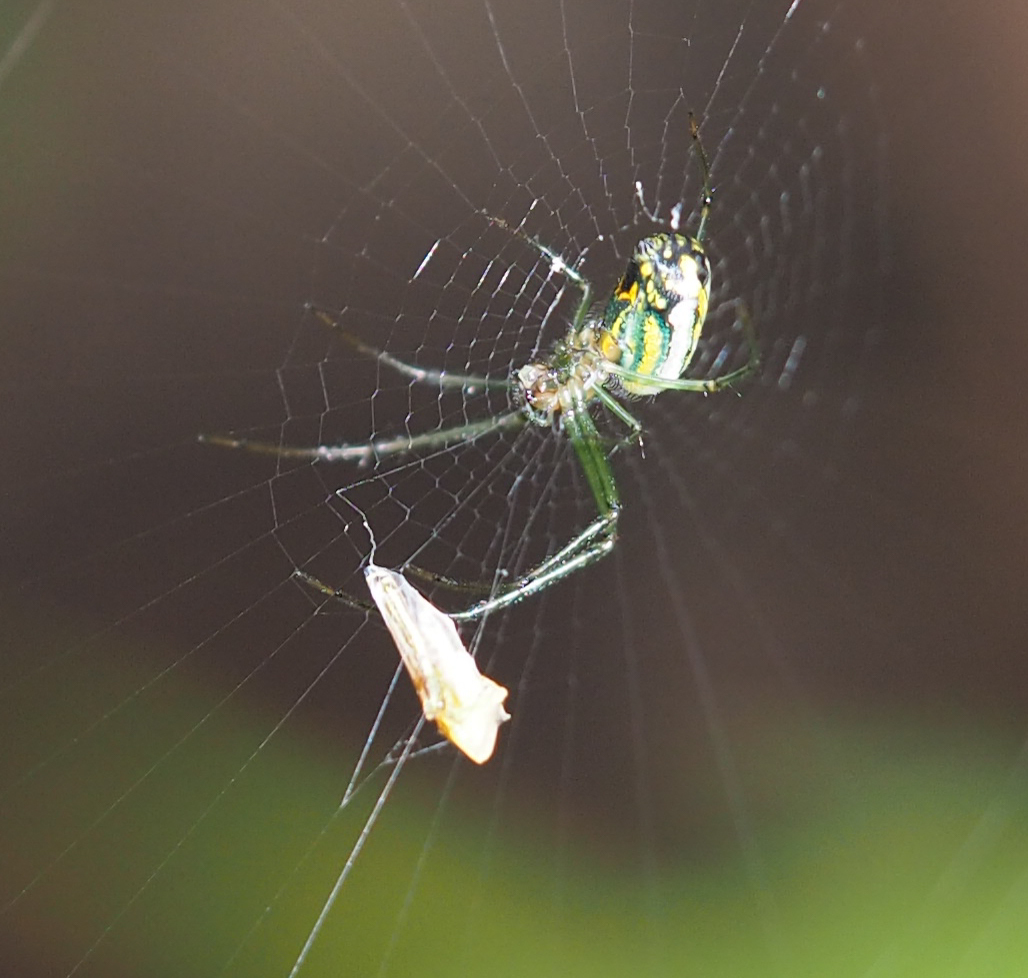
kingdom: Animalia
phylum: Arthropoda
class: Arachnida
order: Araneae
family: Tetragnathidae
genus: Leucauge
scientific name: Leucauge venusta
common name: Longjawed orb weavers
